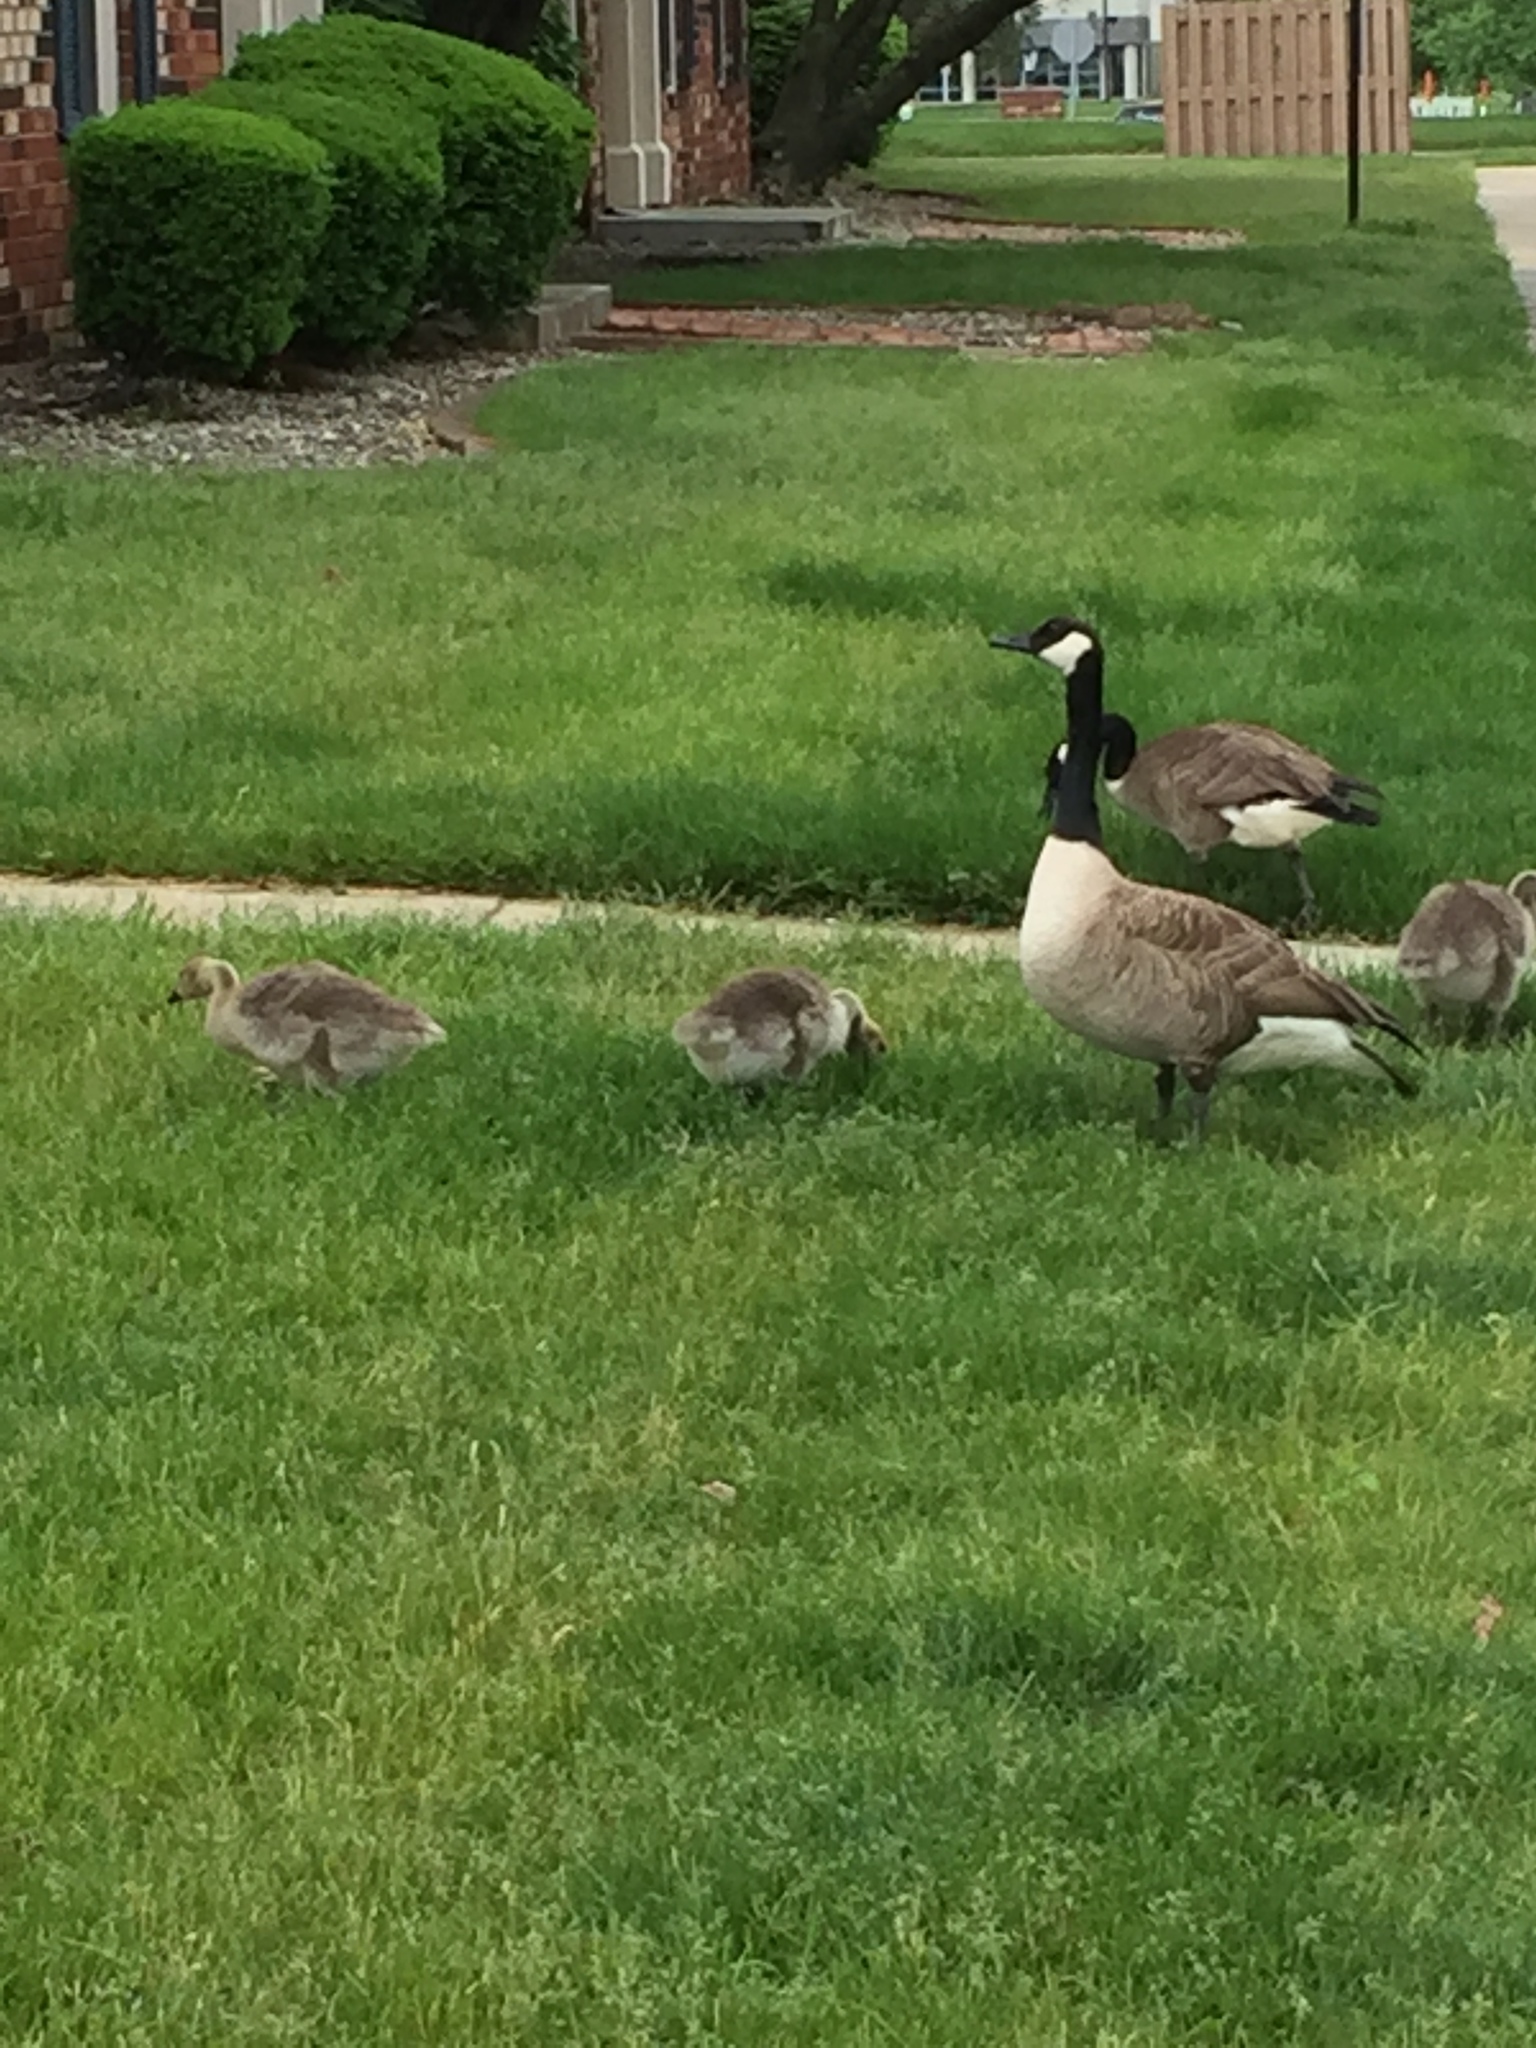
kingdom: Animalia
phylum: Chordata
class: Aves
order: Anseriformes
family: Anatidae
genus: Branta
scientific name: Branta canadensis
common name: Canada goose
